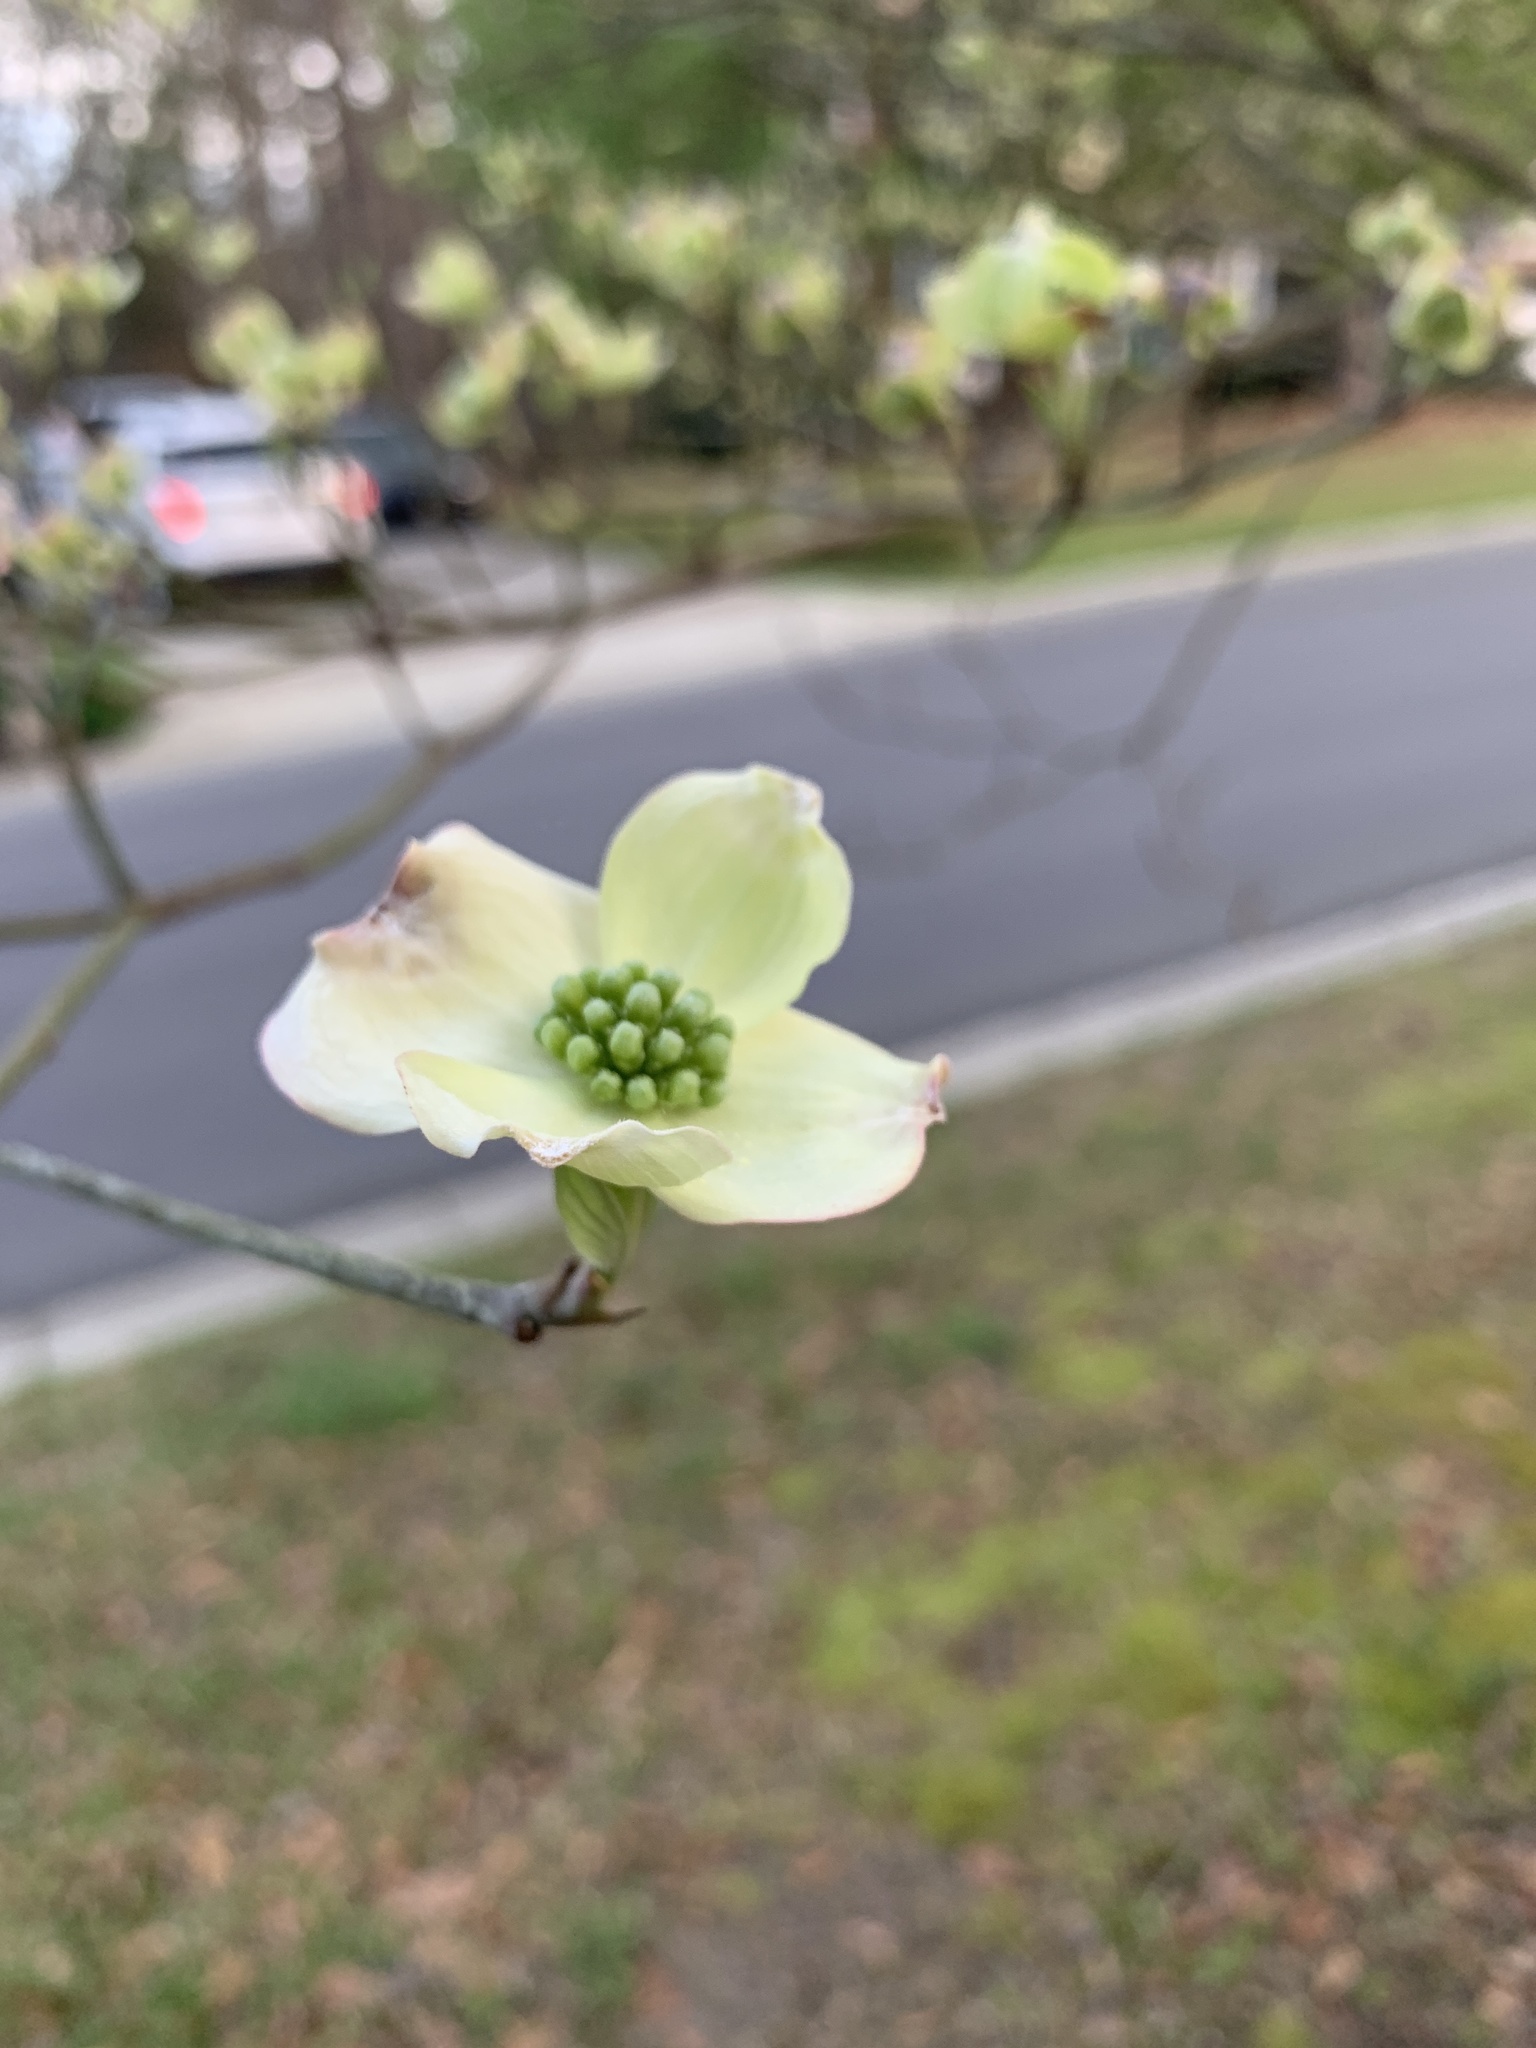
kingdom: Plantae
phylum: Tracheophyta
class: Magnoliopsida
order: Cornales
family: Cornaceae
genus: Cornus
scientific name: Cornus florida
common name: Flowering dogwood
